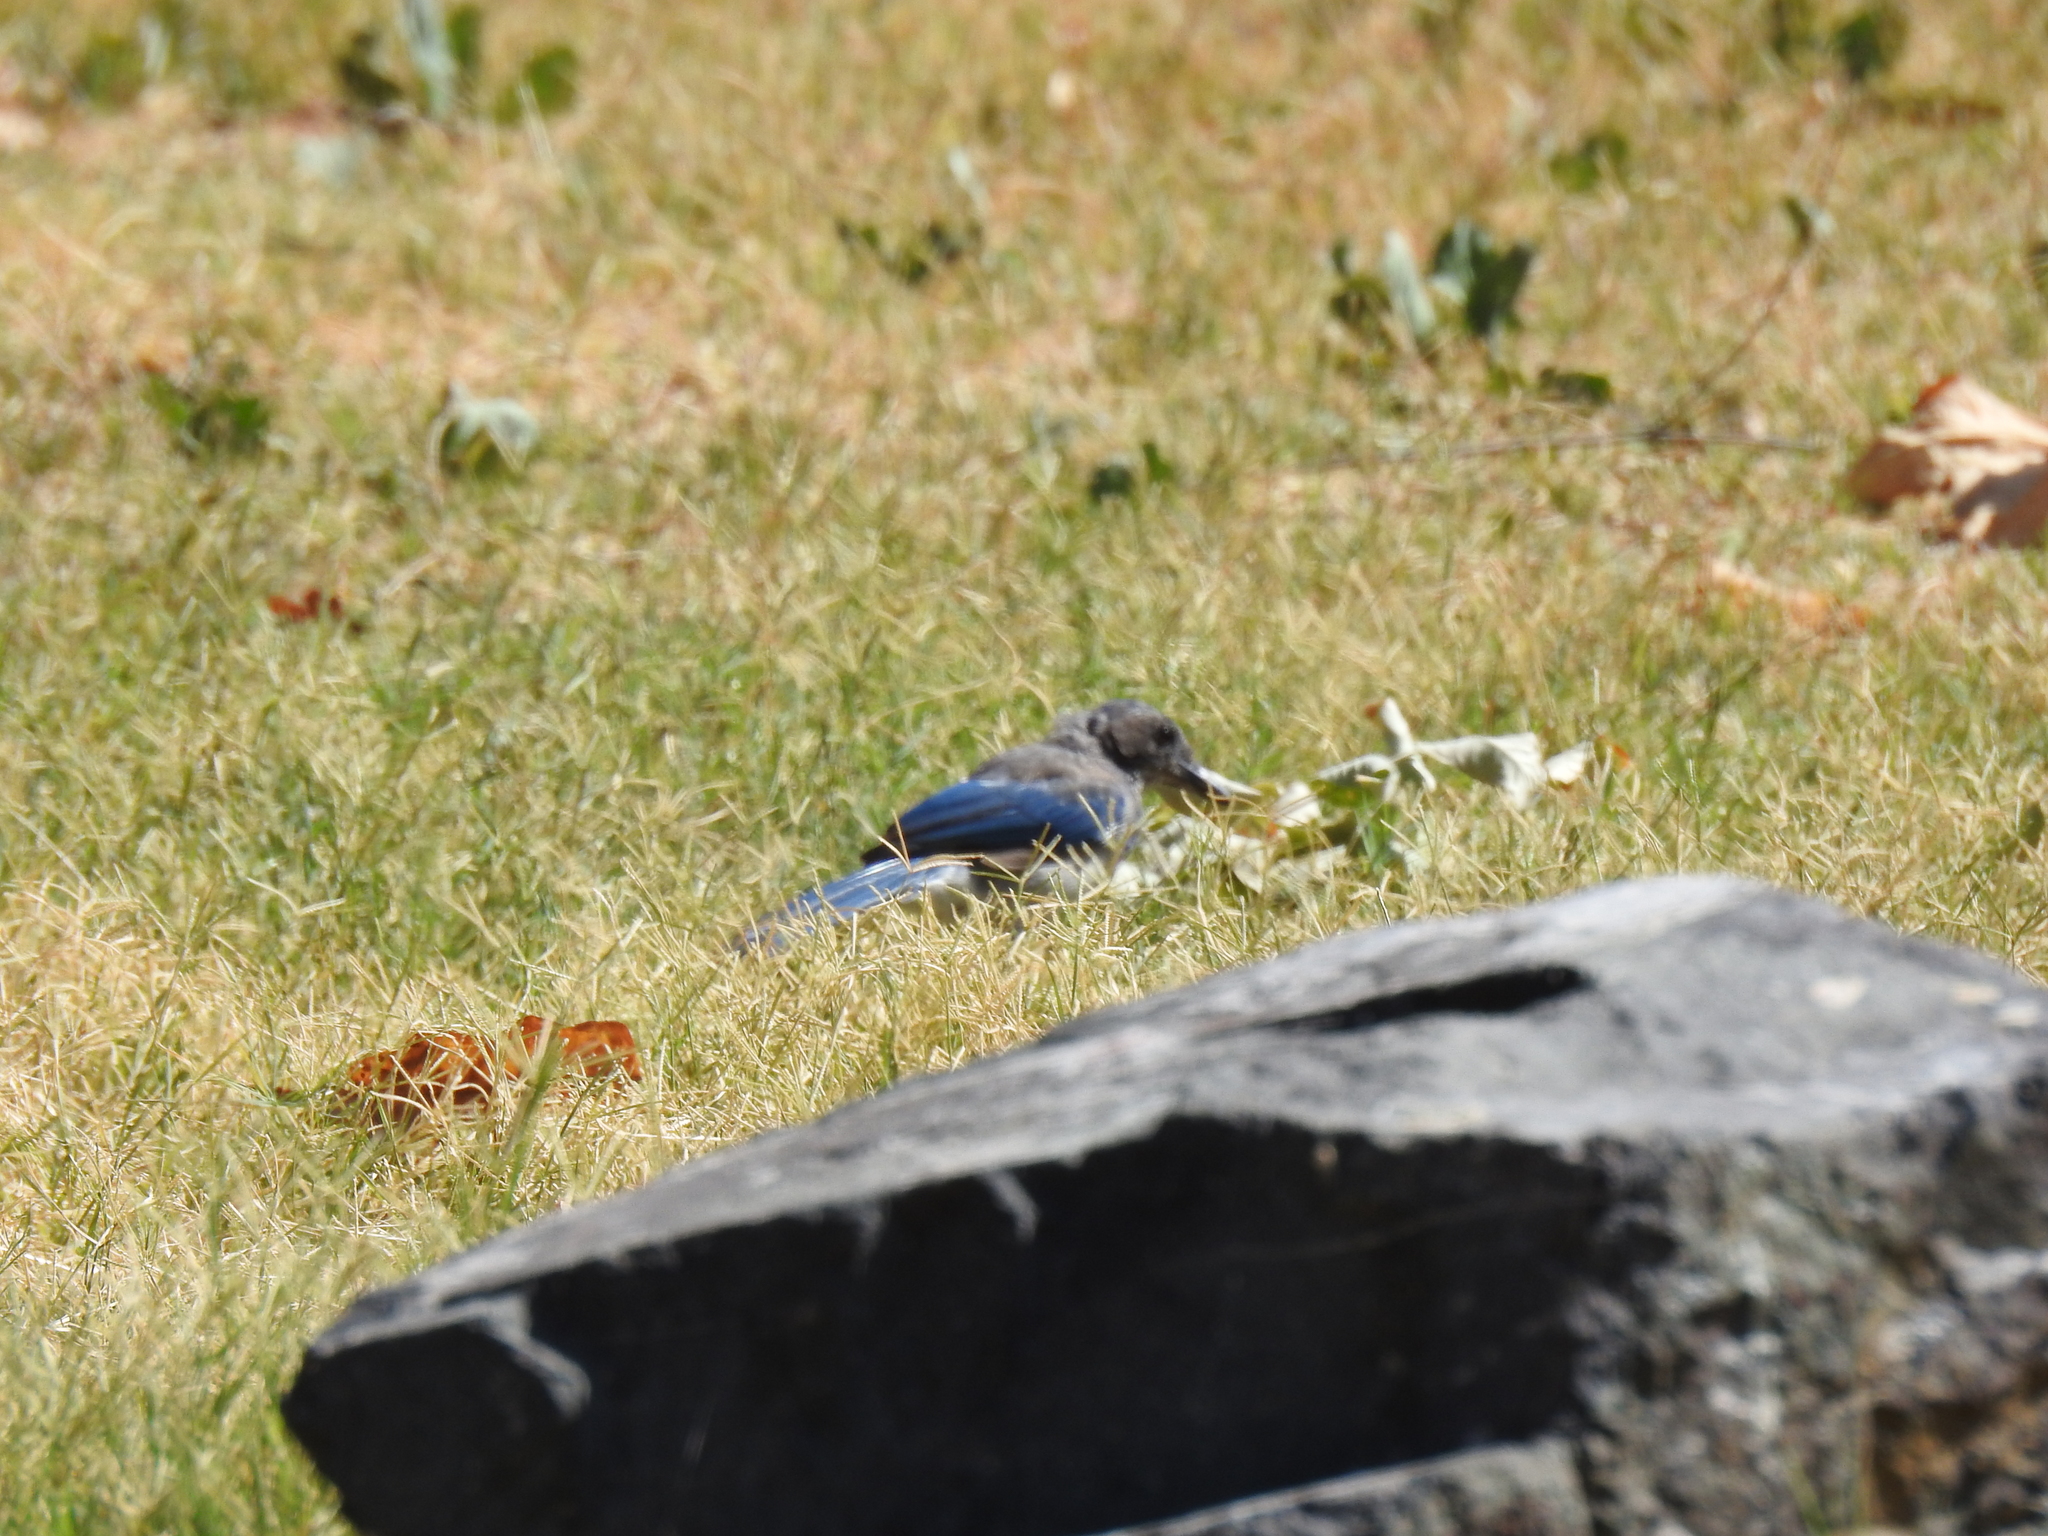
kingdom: Animalia
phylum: Chordata
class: Aves
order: Passeriformes
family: Corvidae
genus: Aphelocoma
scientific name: Aphelocoma californica
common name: California scrub-jay
